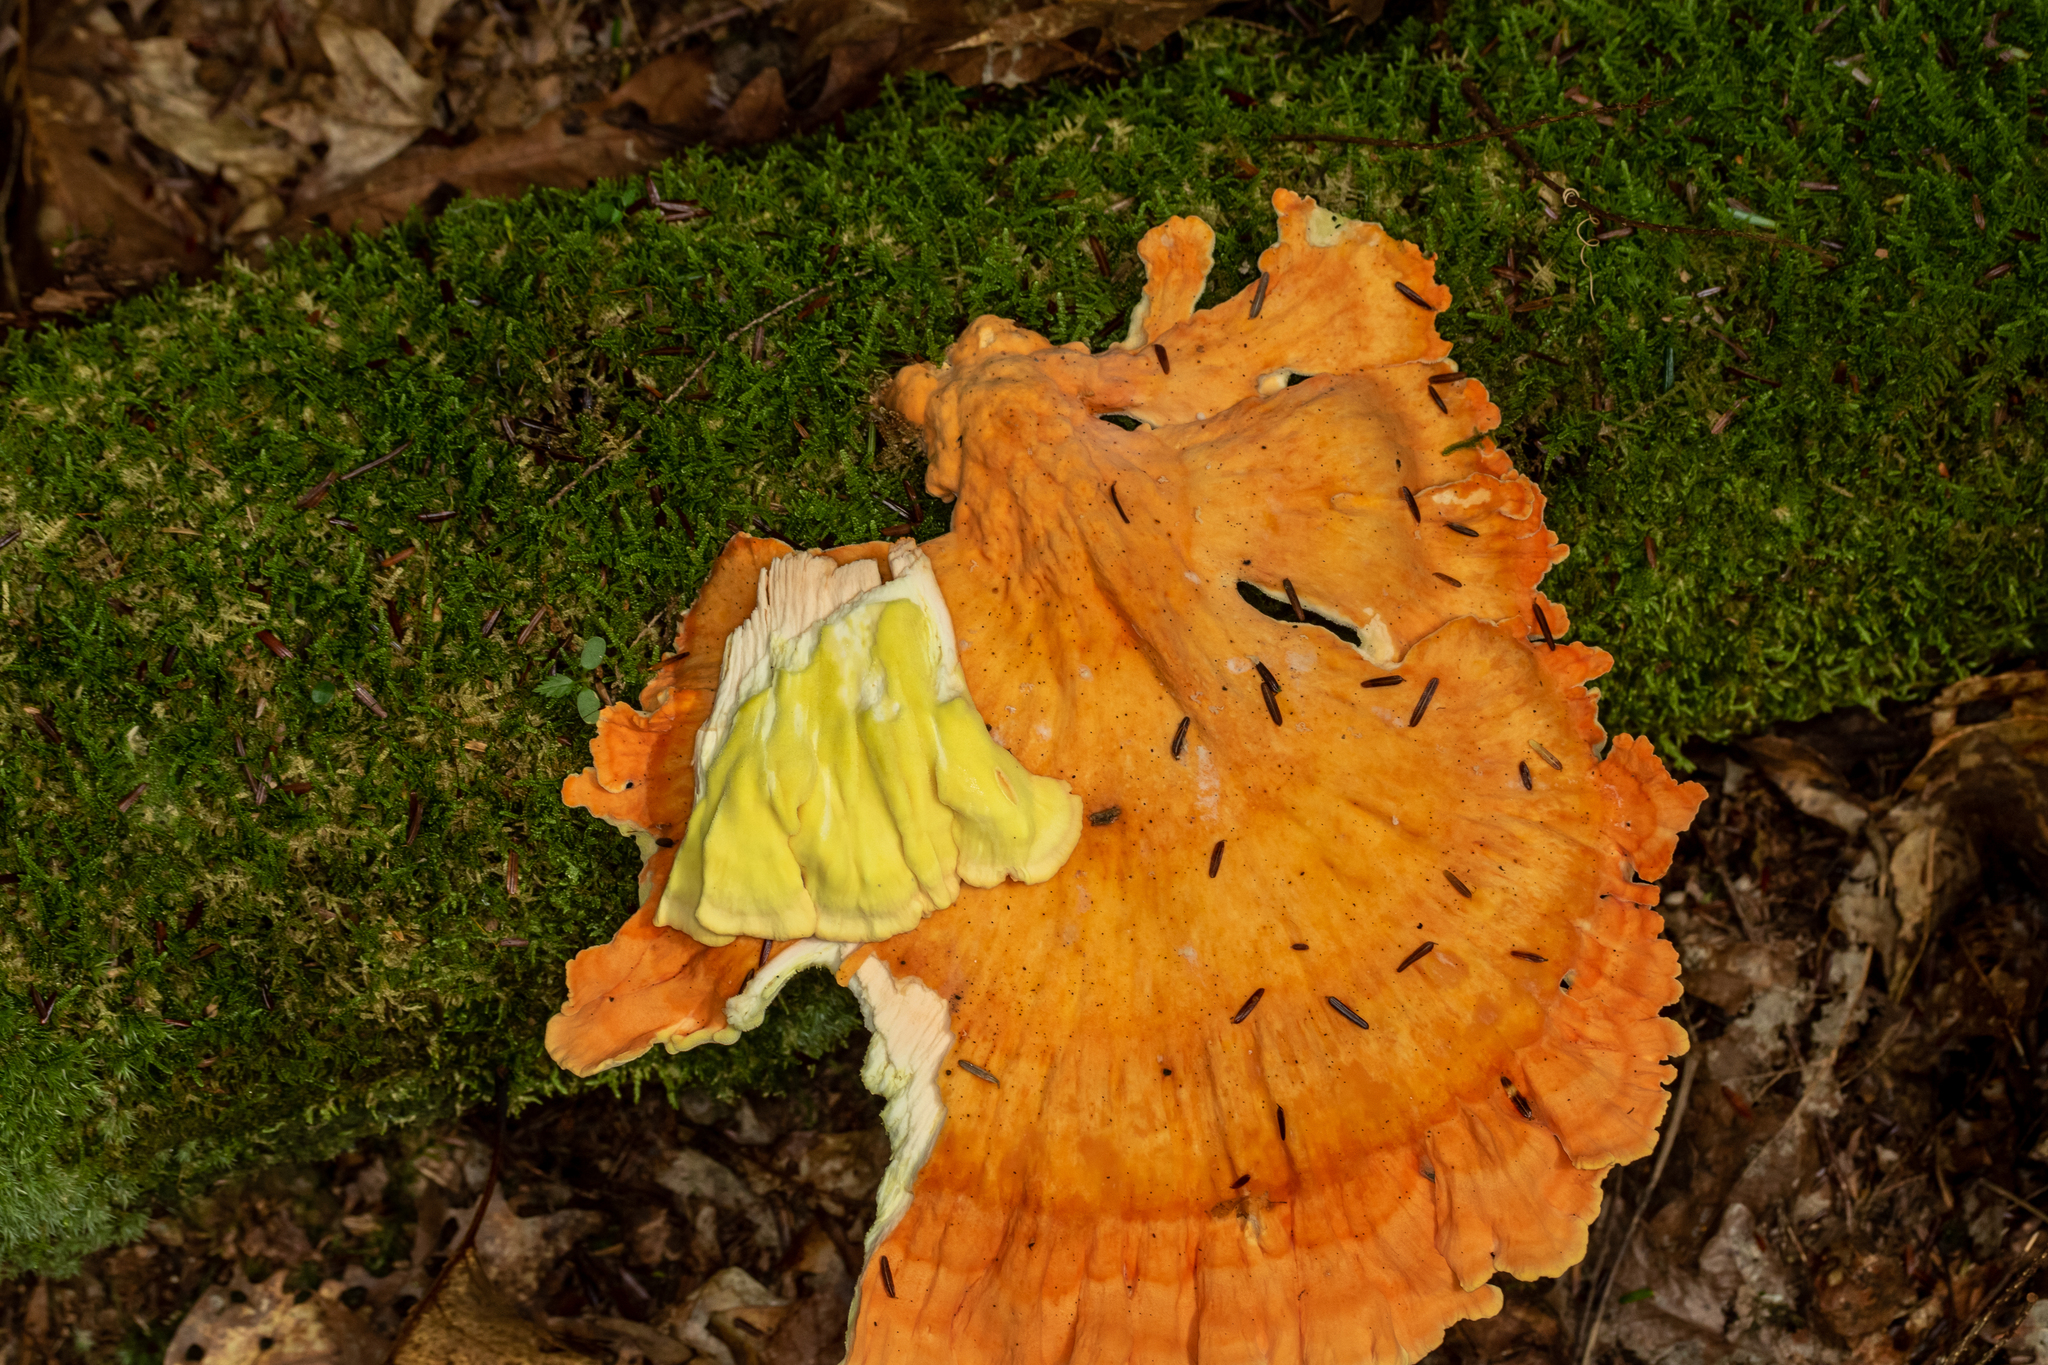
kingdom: Fungi
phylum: Basidiomycota
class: Agaricomycetes
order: Polyporales
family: Laetiporaceae
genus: Laetiporus
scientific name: Laetiporus sulphureus
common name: Chicken of the woods
